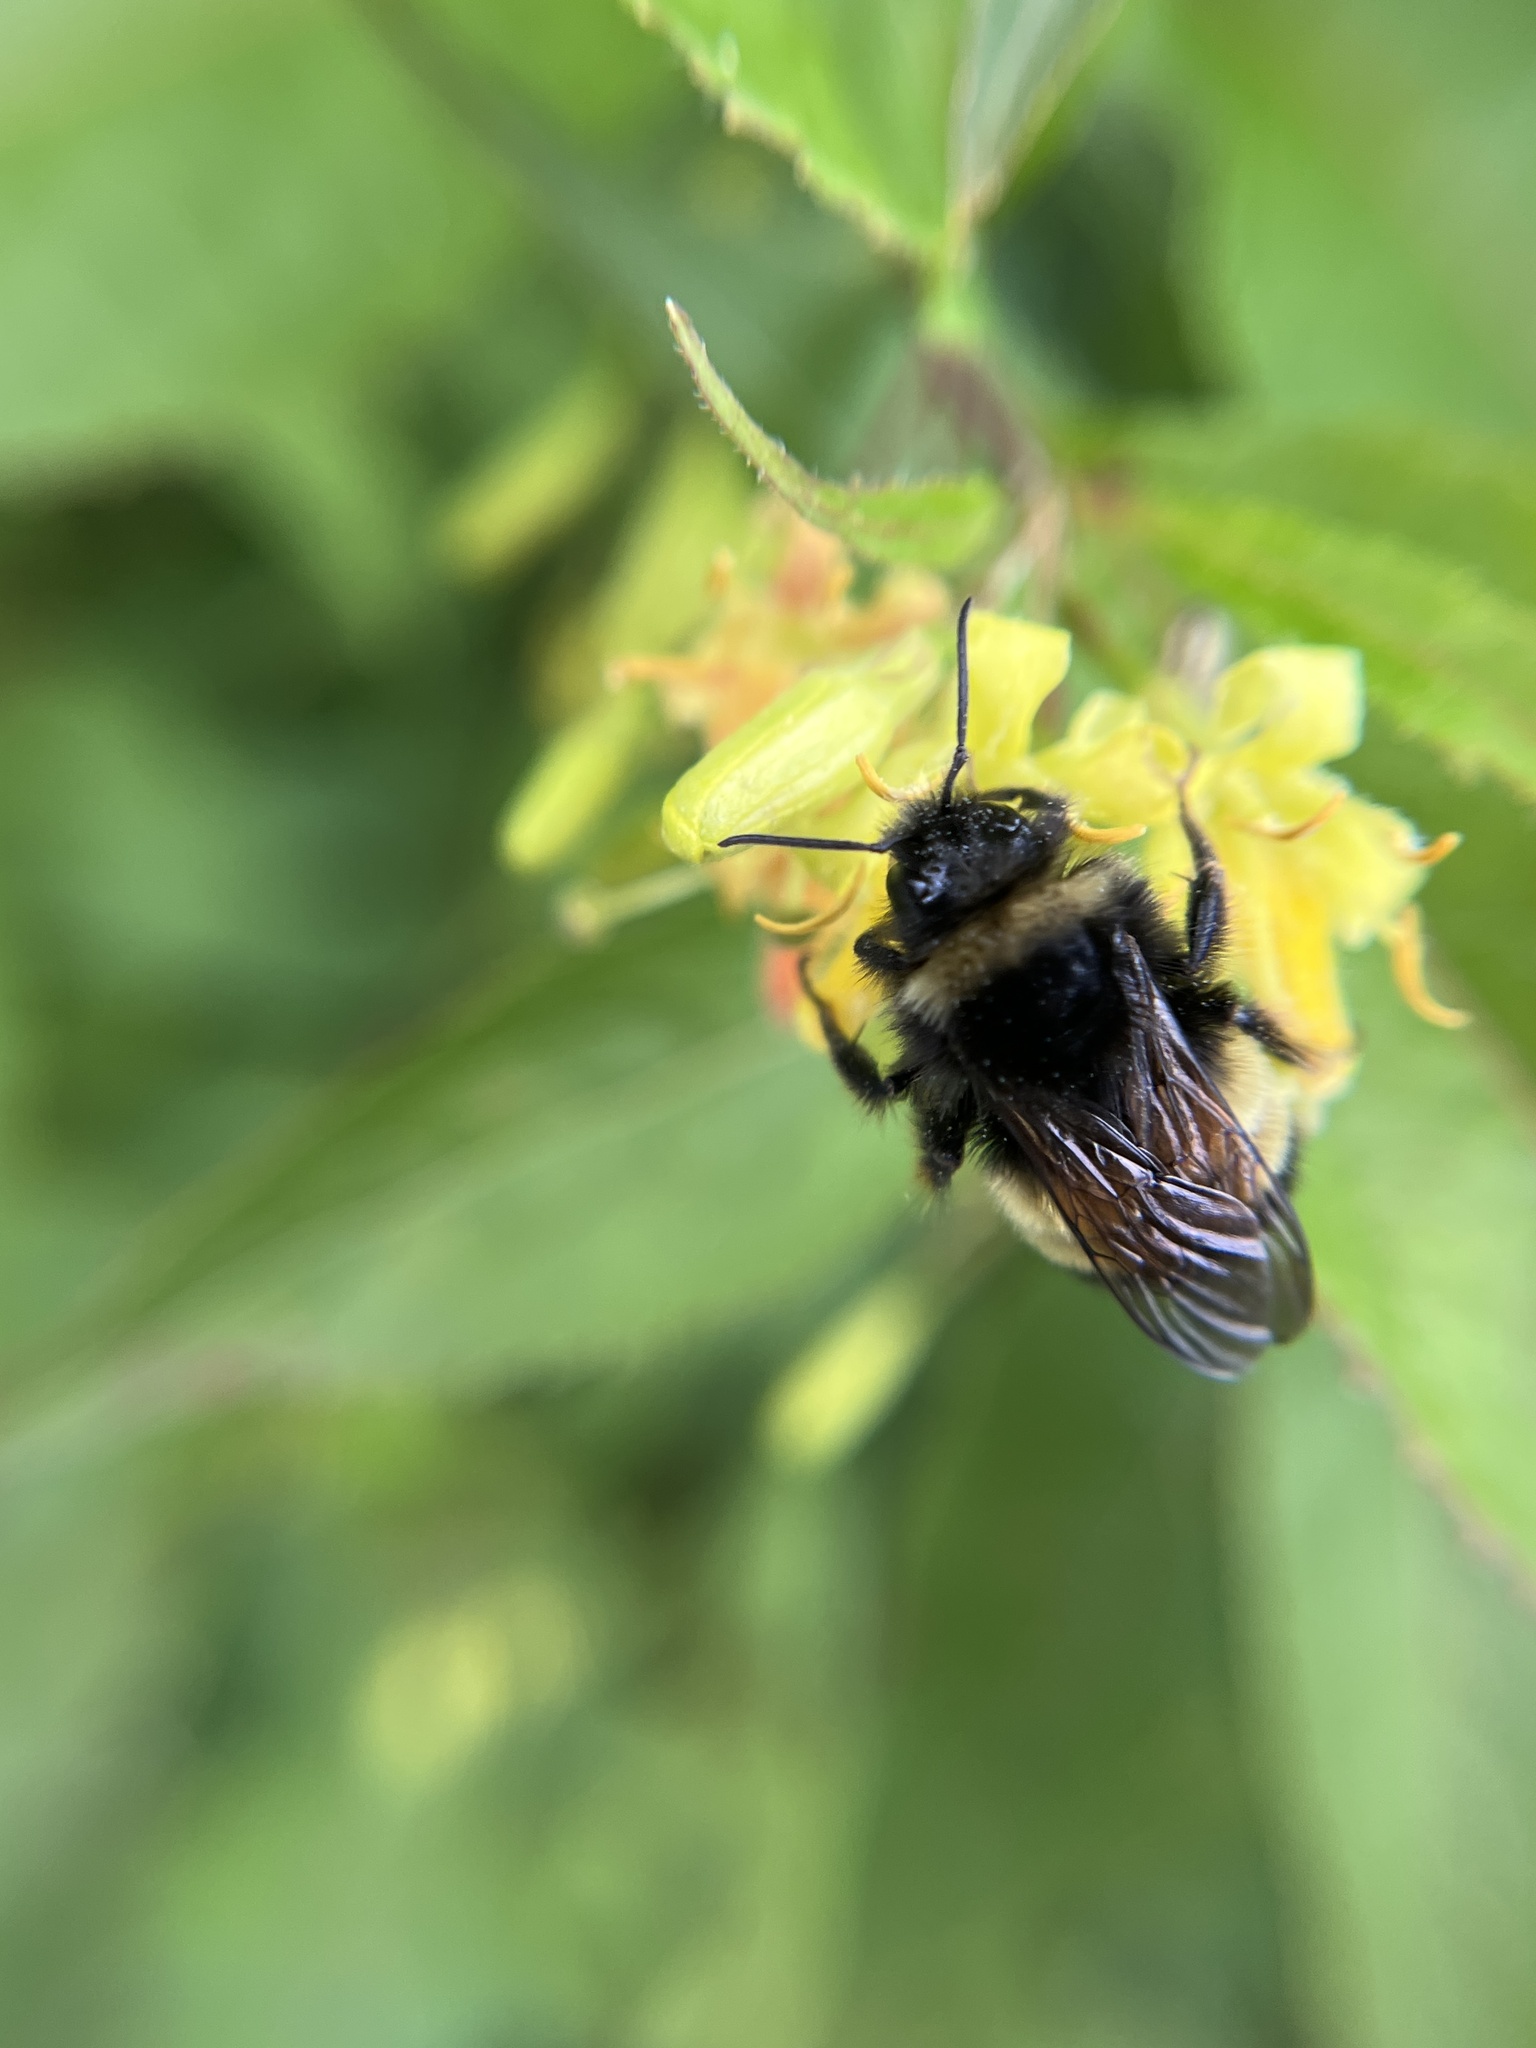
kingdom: Animalia
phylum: Arthropoda
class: Insecta
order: Hymenoptera
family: Apidae
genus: Bombus
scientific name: Bombus terricola
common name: Yellow-banded bumble bee
